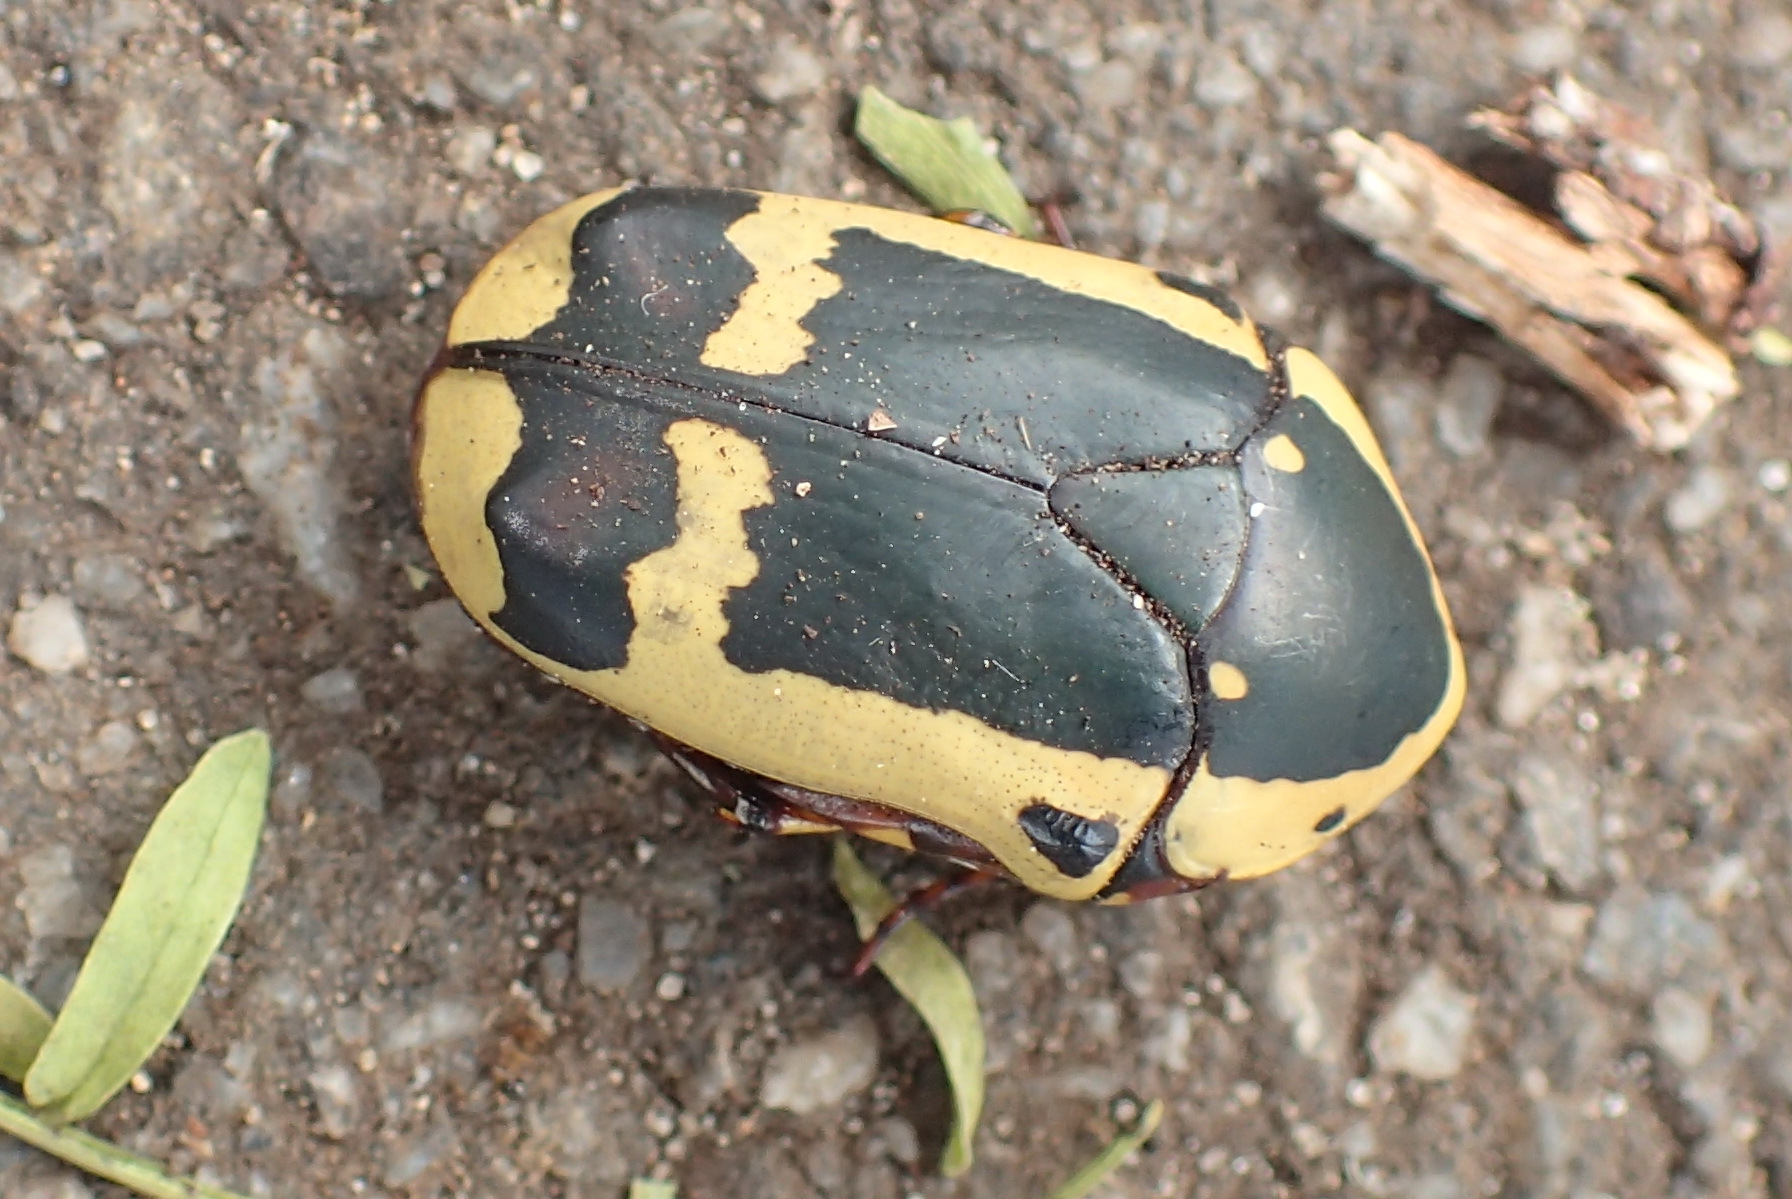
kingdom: Animalia
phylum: Arthropoda
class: Insecta
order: Coleoptera
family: Scarabaeidae
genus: Pachnoda
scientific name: Pachnoda sinuata
